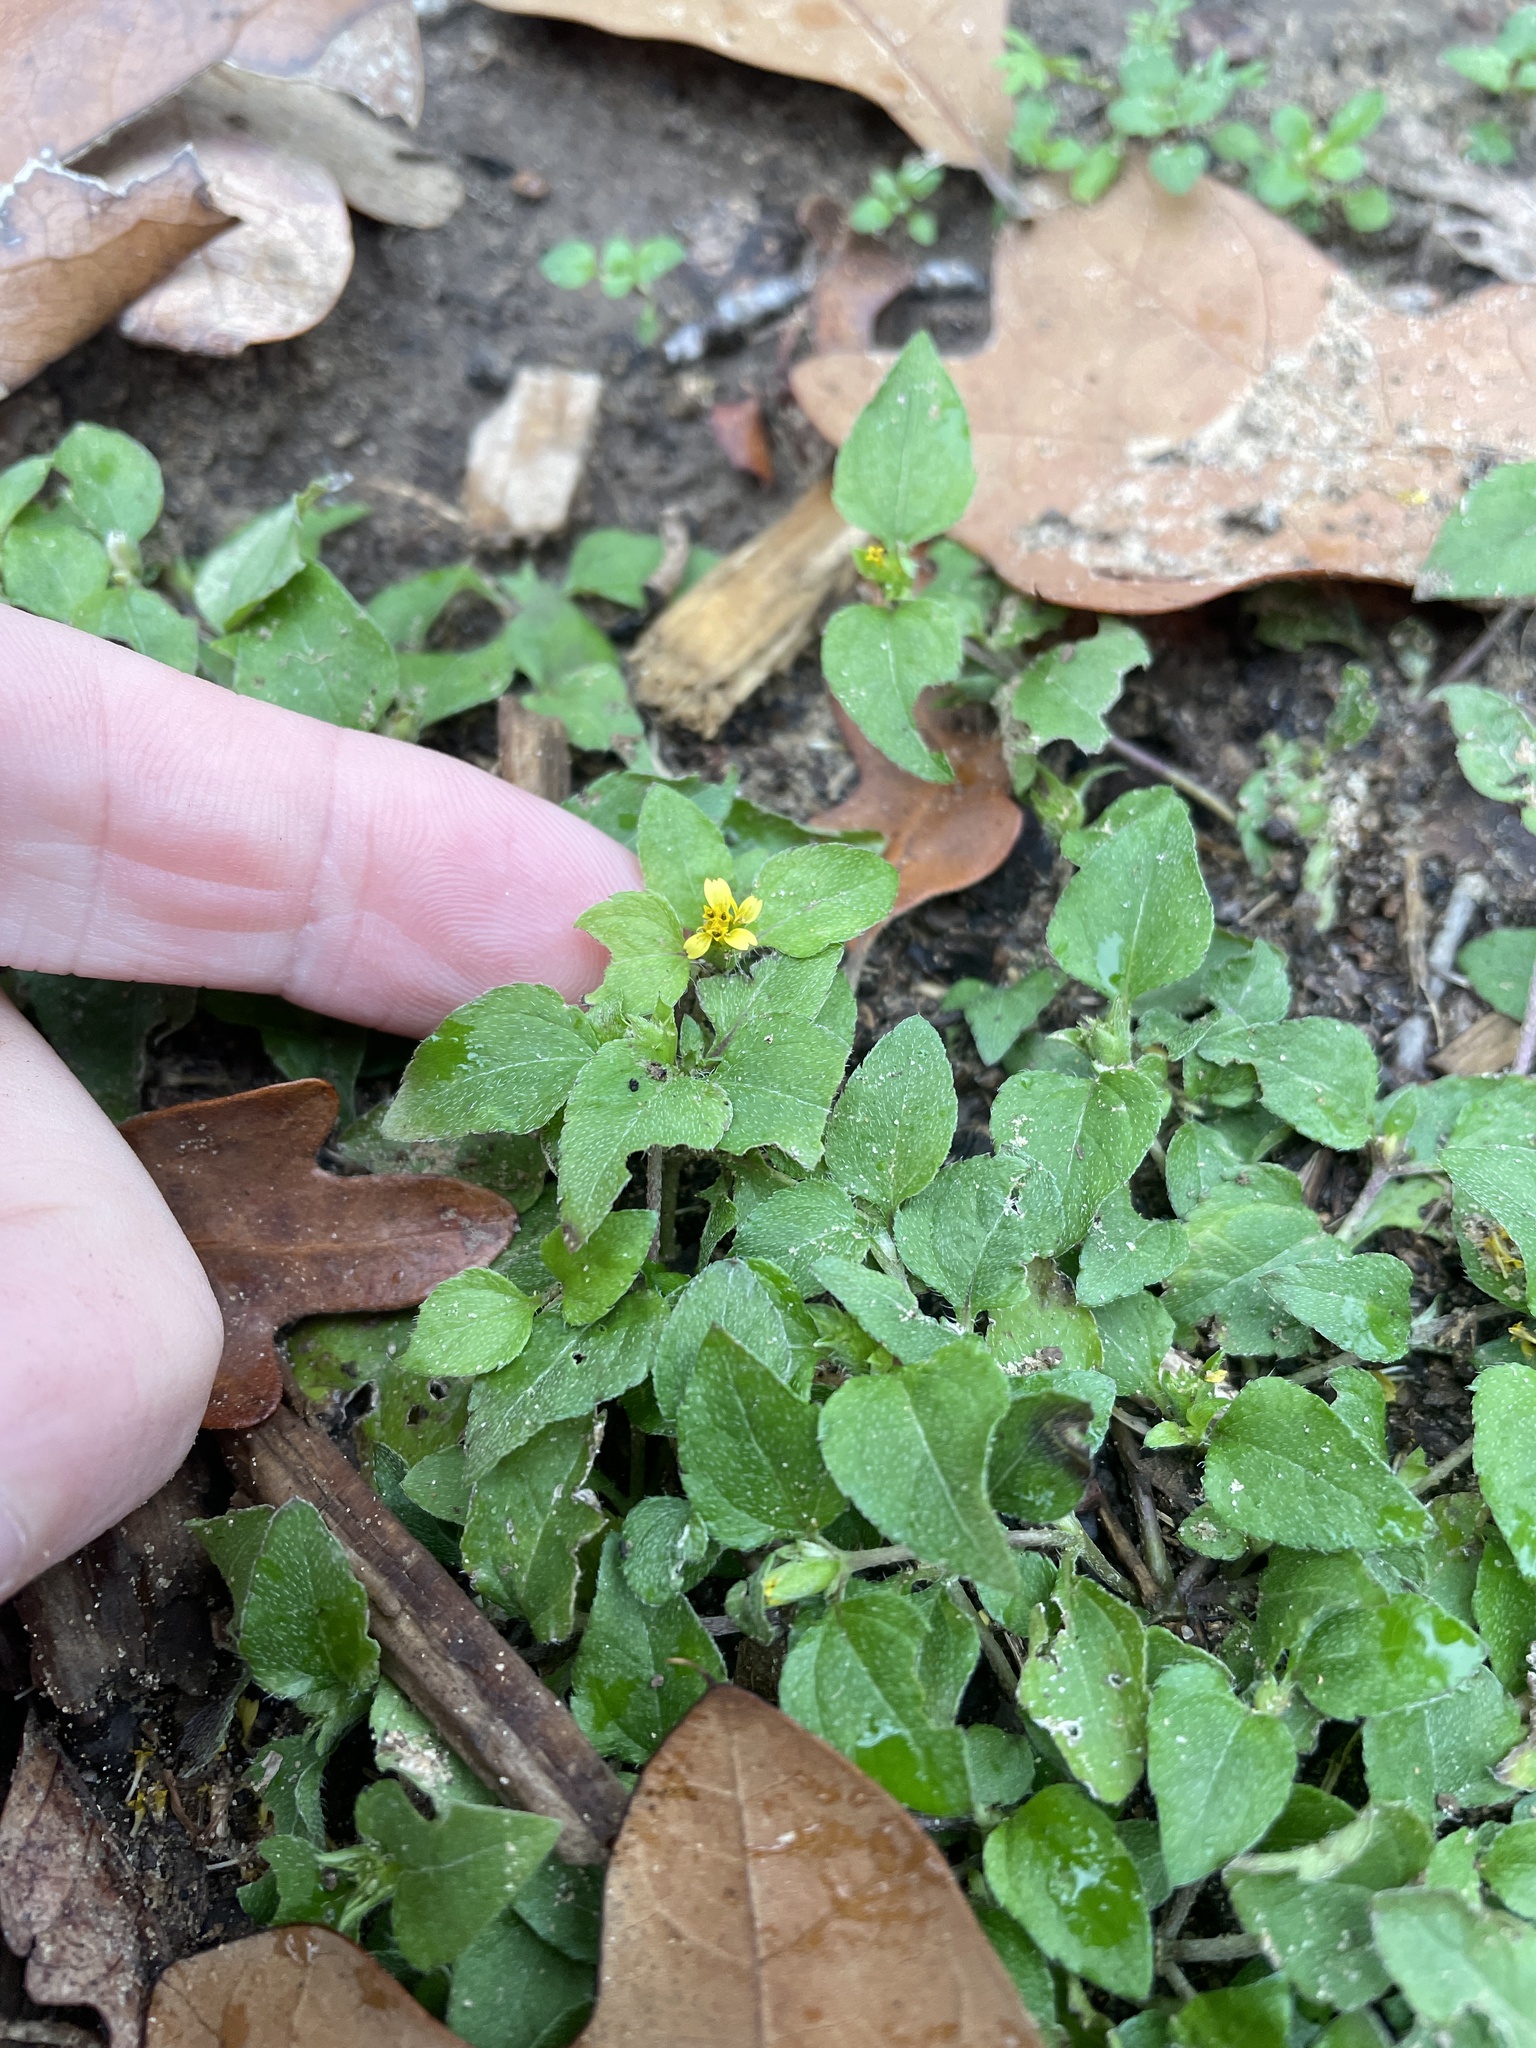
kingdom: Plantae
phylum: Tracheophyta
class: Magnoliopsida
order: Asterales
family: Asteraceae
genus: Calyptocarpus
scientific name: Calyptocarpus vialis
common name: Straggler daisy
